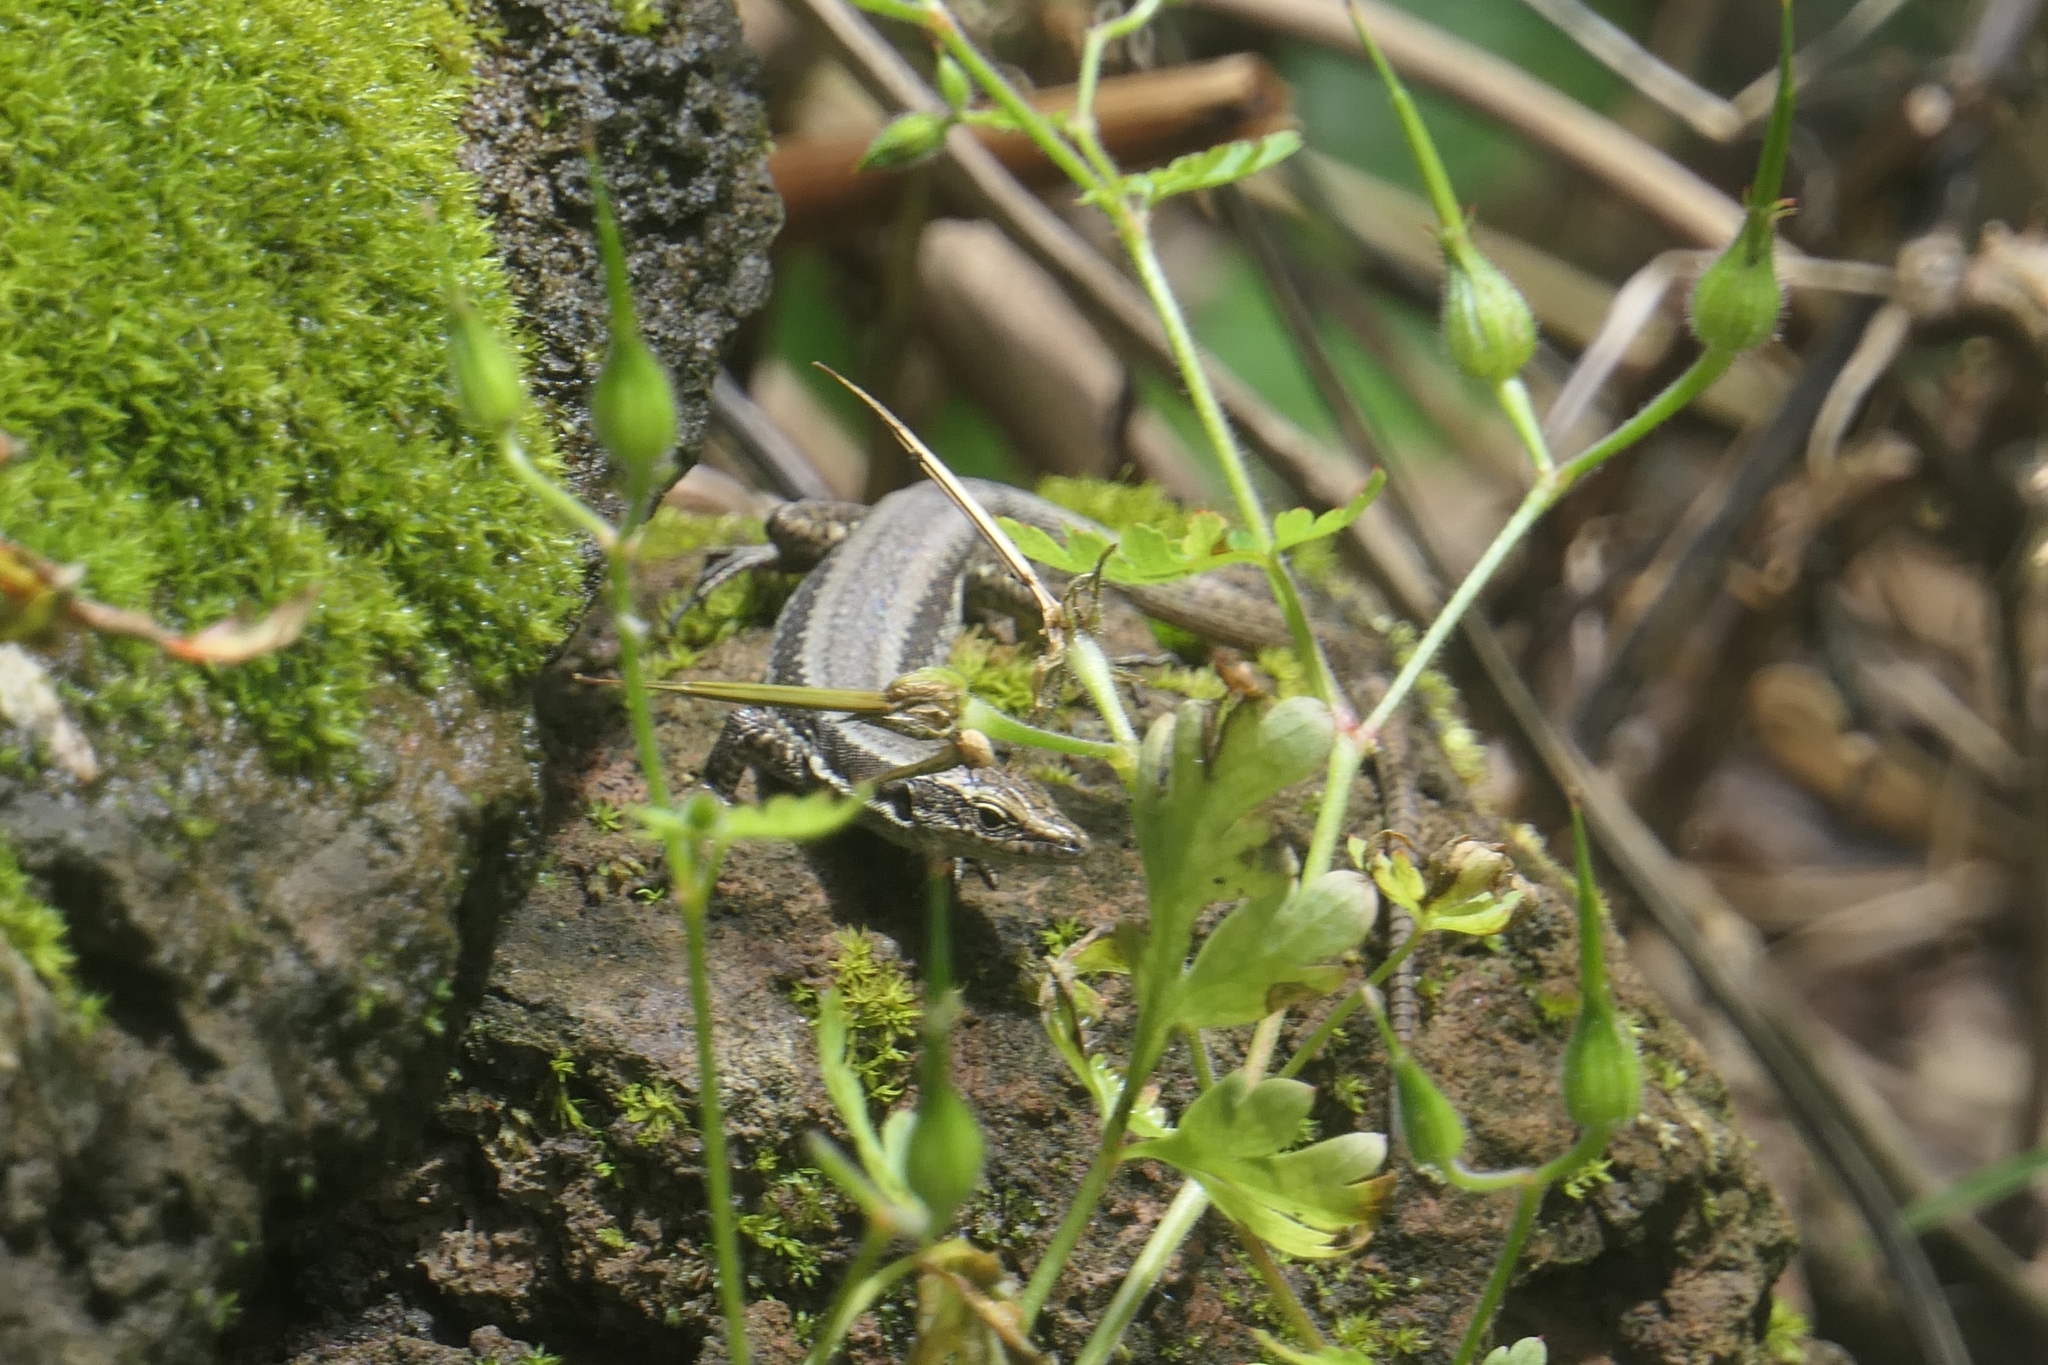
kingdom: Animalia
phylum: Chordata
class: Squamata
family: Lacertidae
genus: Teira
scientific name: Teira dugesii
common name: Madeira lizard
